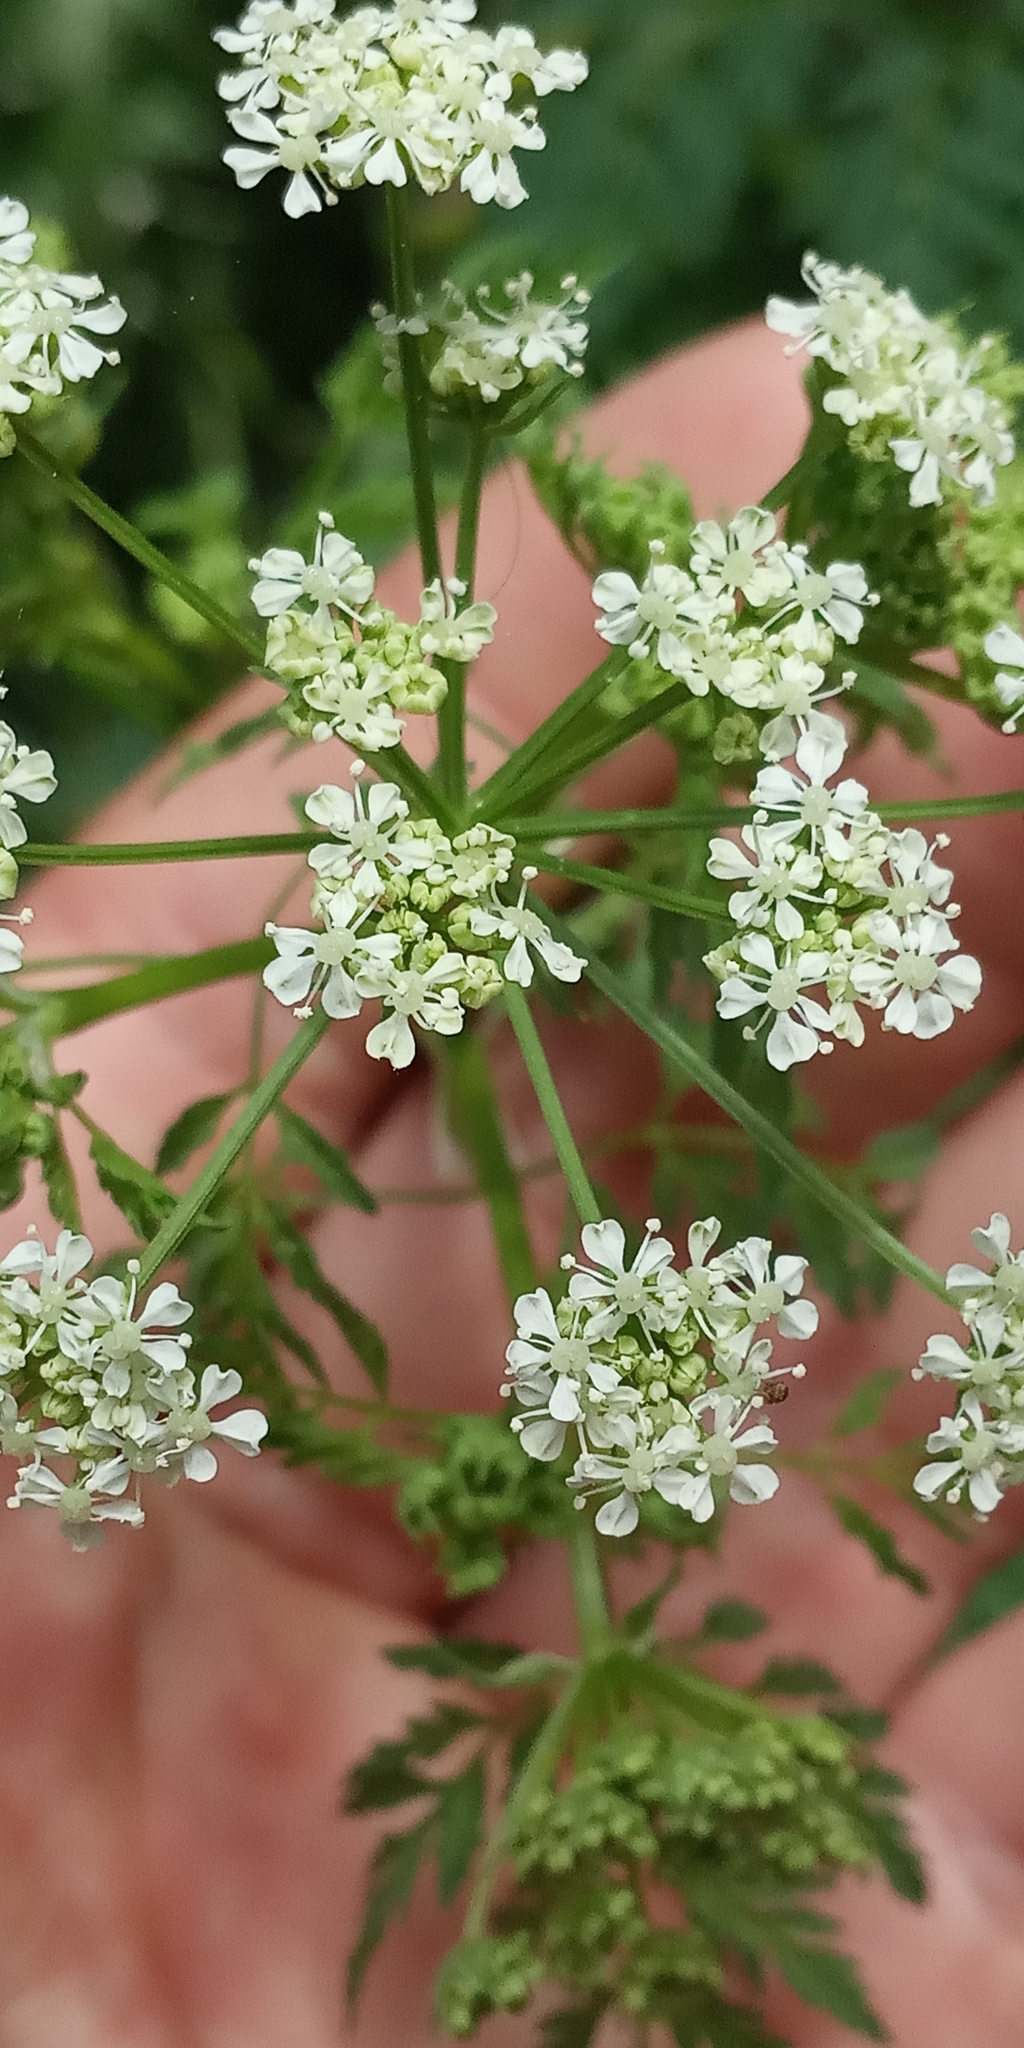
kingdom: Plantae
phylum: Tracheophyta
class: Magnoliopsida
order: Apiales
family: Apiaceae
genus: Conium
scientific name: Conium maculatum
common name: Hemlock
